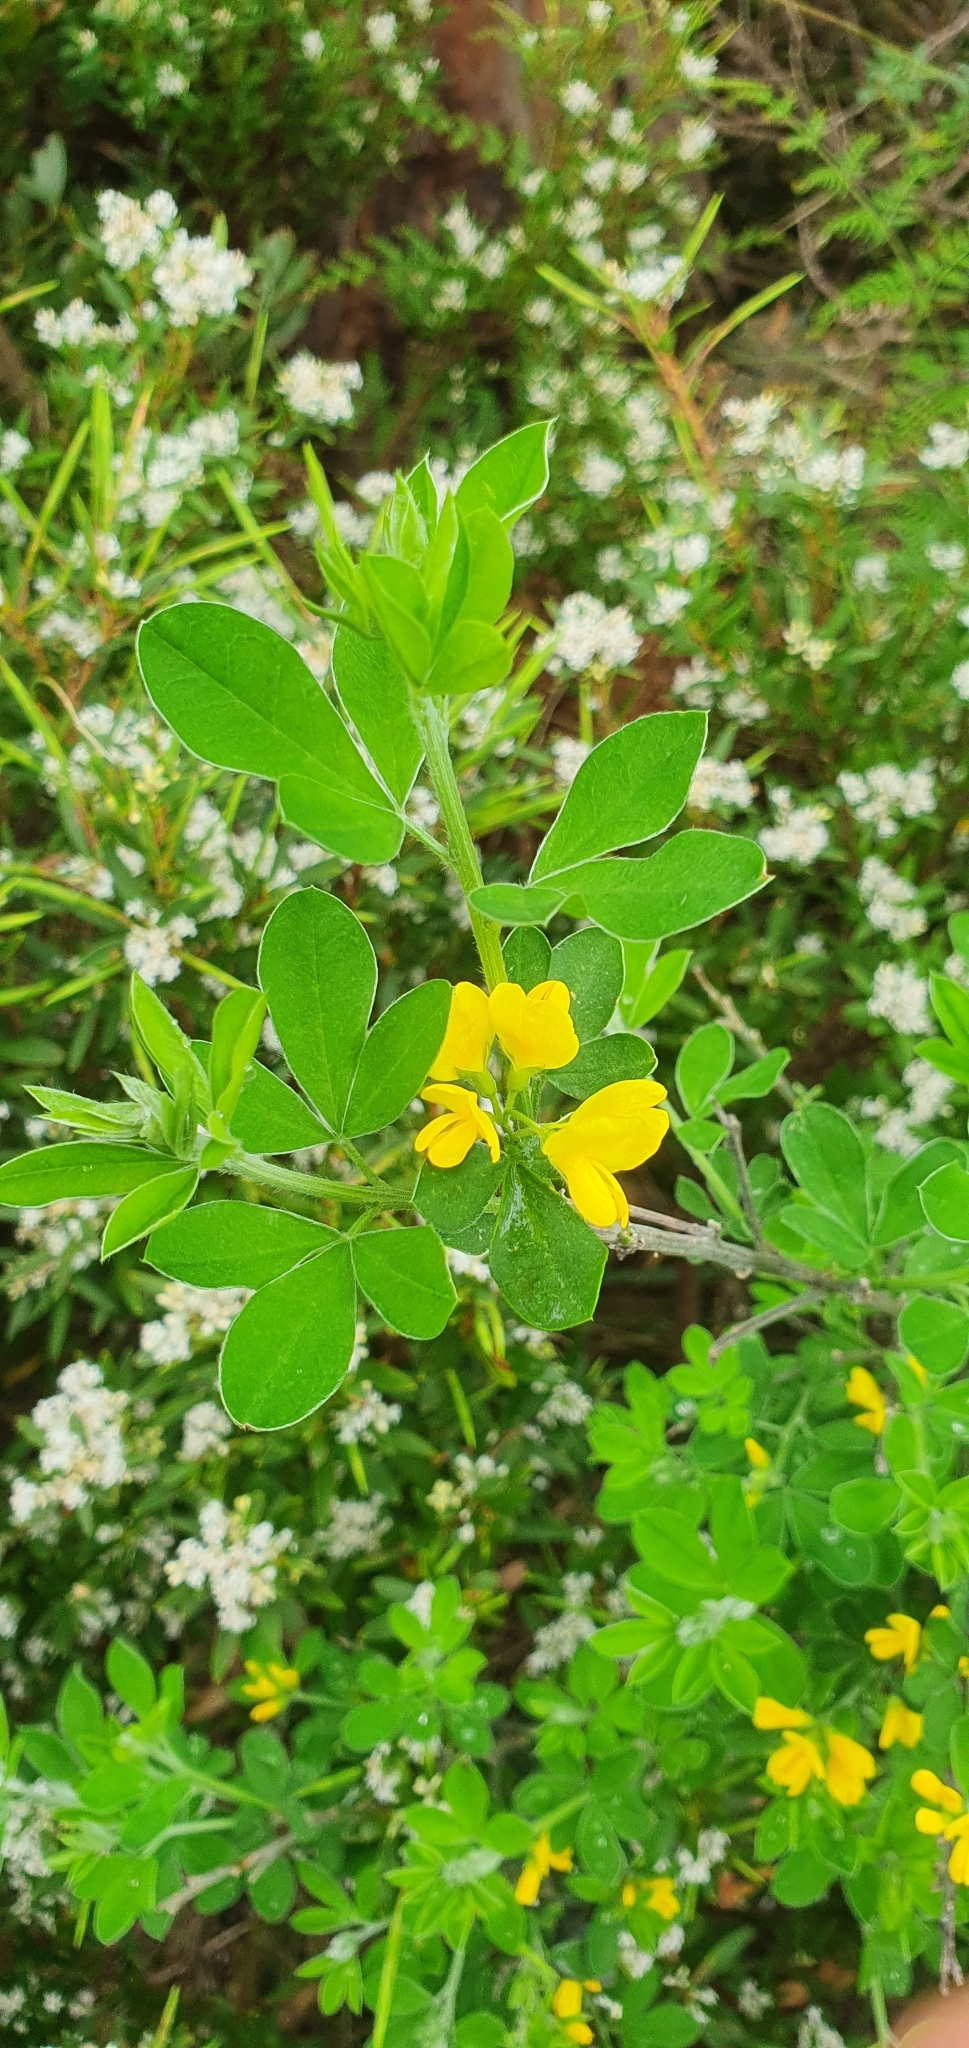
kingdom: Plantae
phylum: Tracheophyta
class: Magnoliopsida
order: Fabales
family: Fabaceae
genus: Genista
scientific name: Genista monspessulana
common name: Montpellier broom
